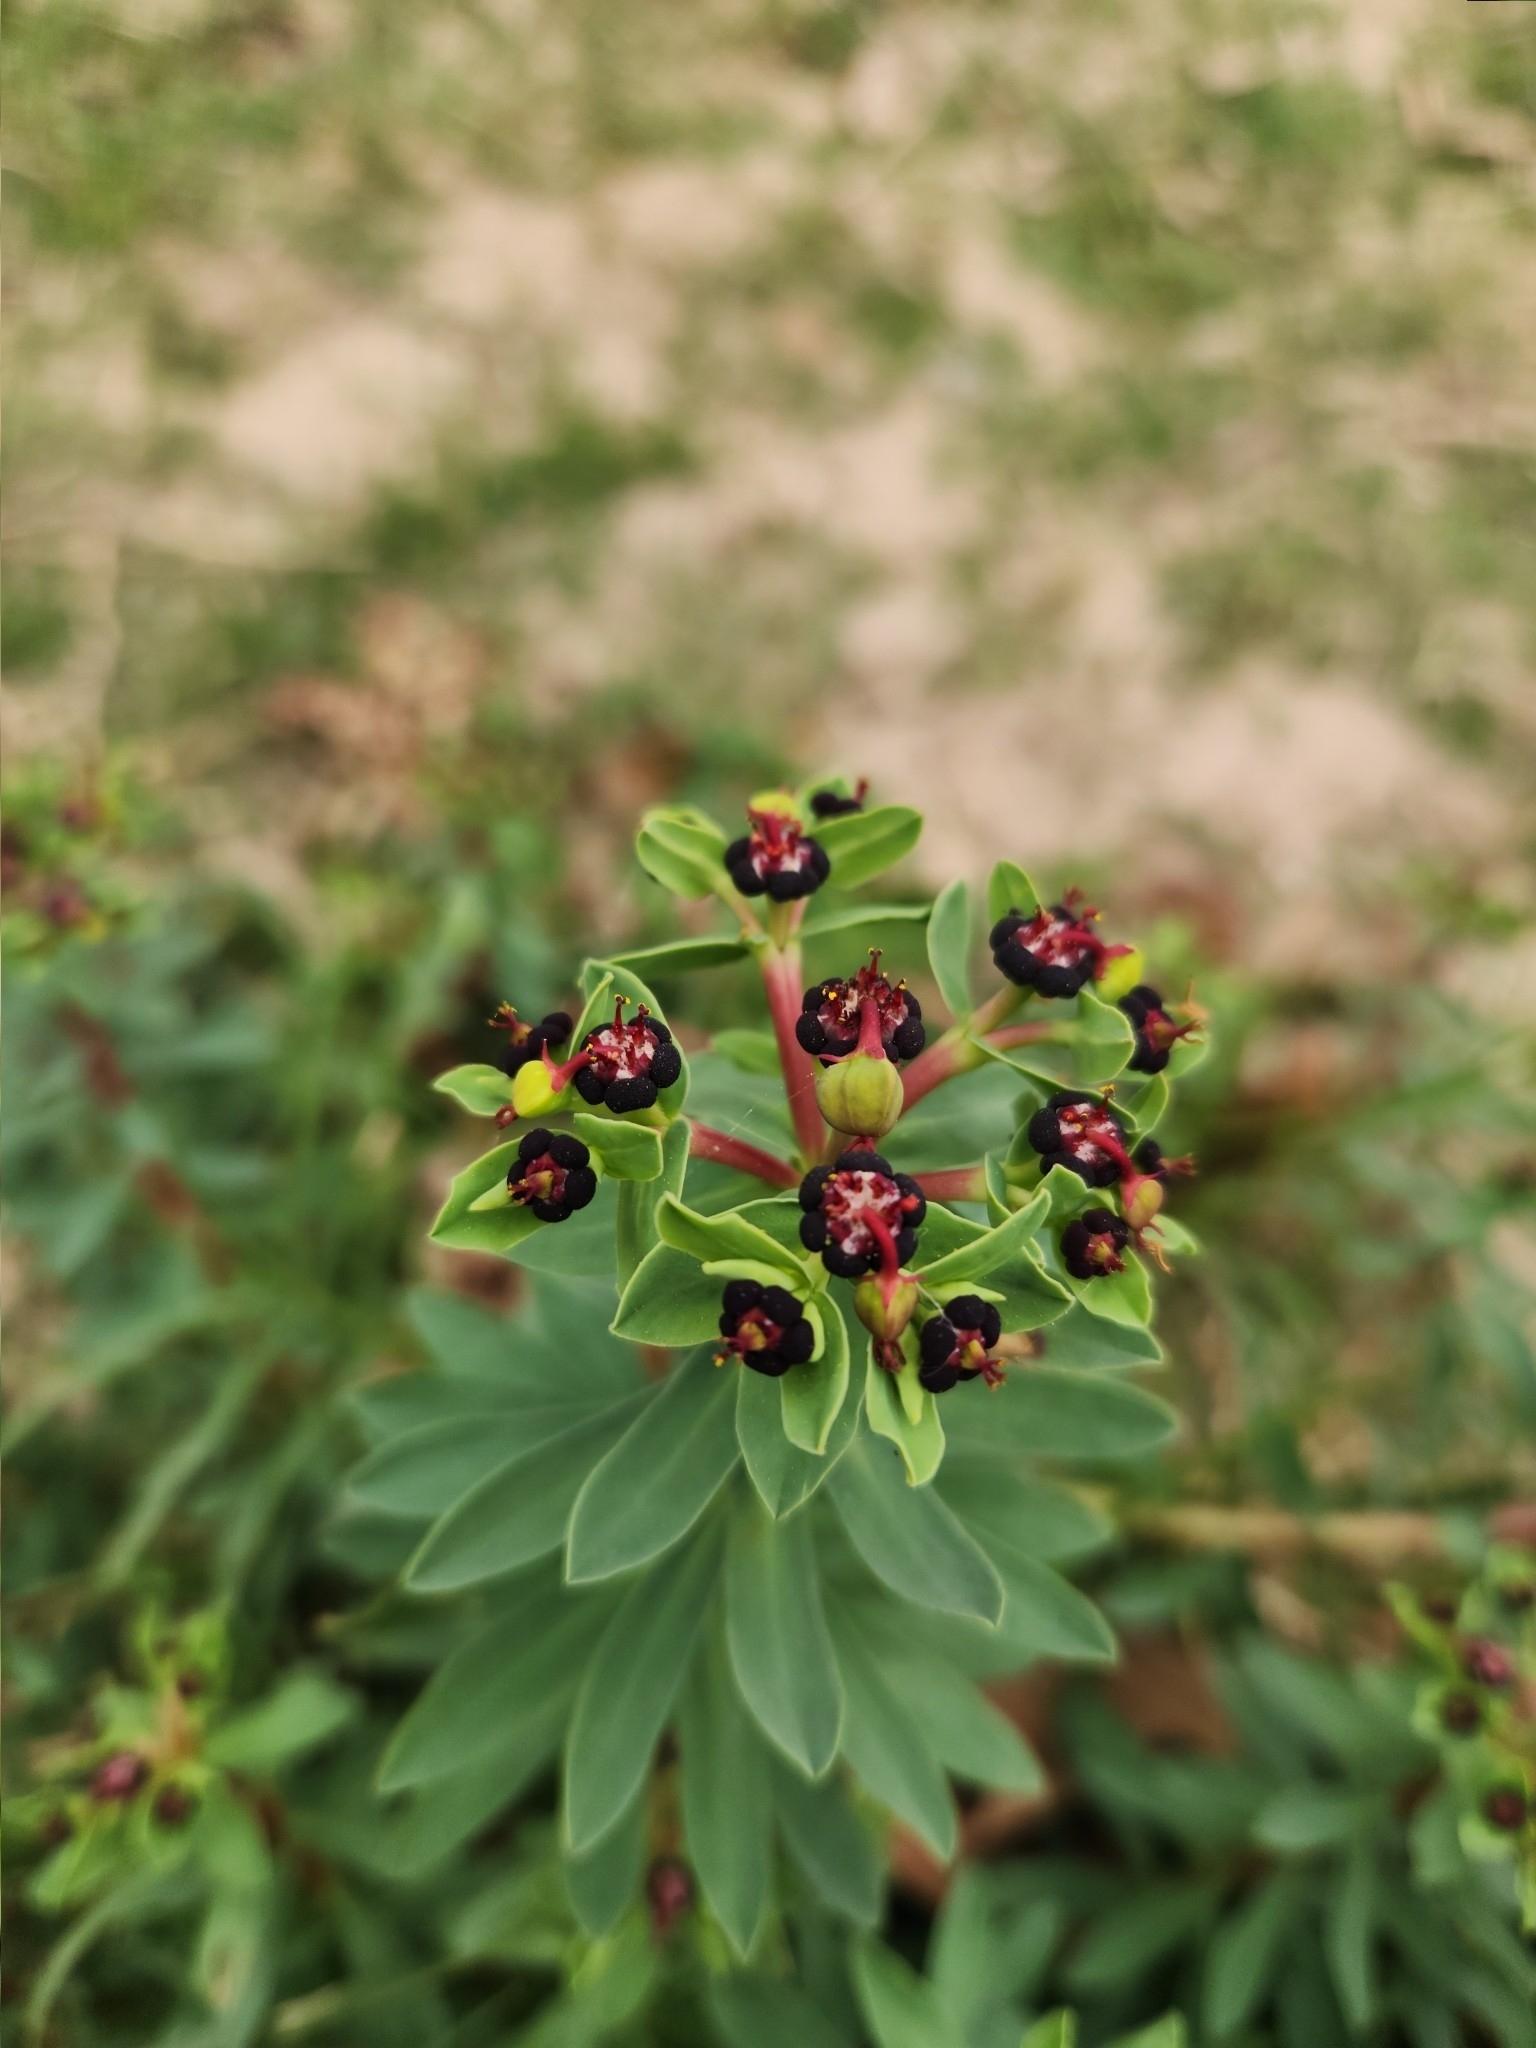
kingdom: Plantae
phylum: Tracheophyta
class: Magnoliopsida
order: Malpighiales
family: Euphorbiaceae
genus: Euphorbia
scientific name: Euphorbia portulacoides
